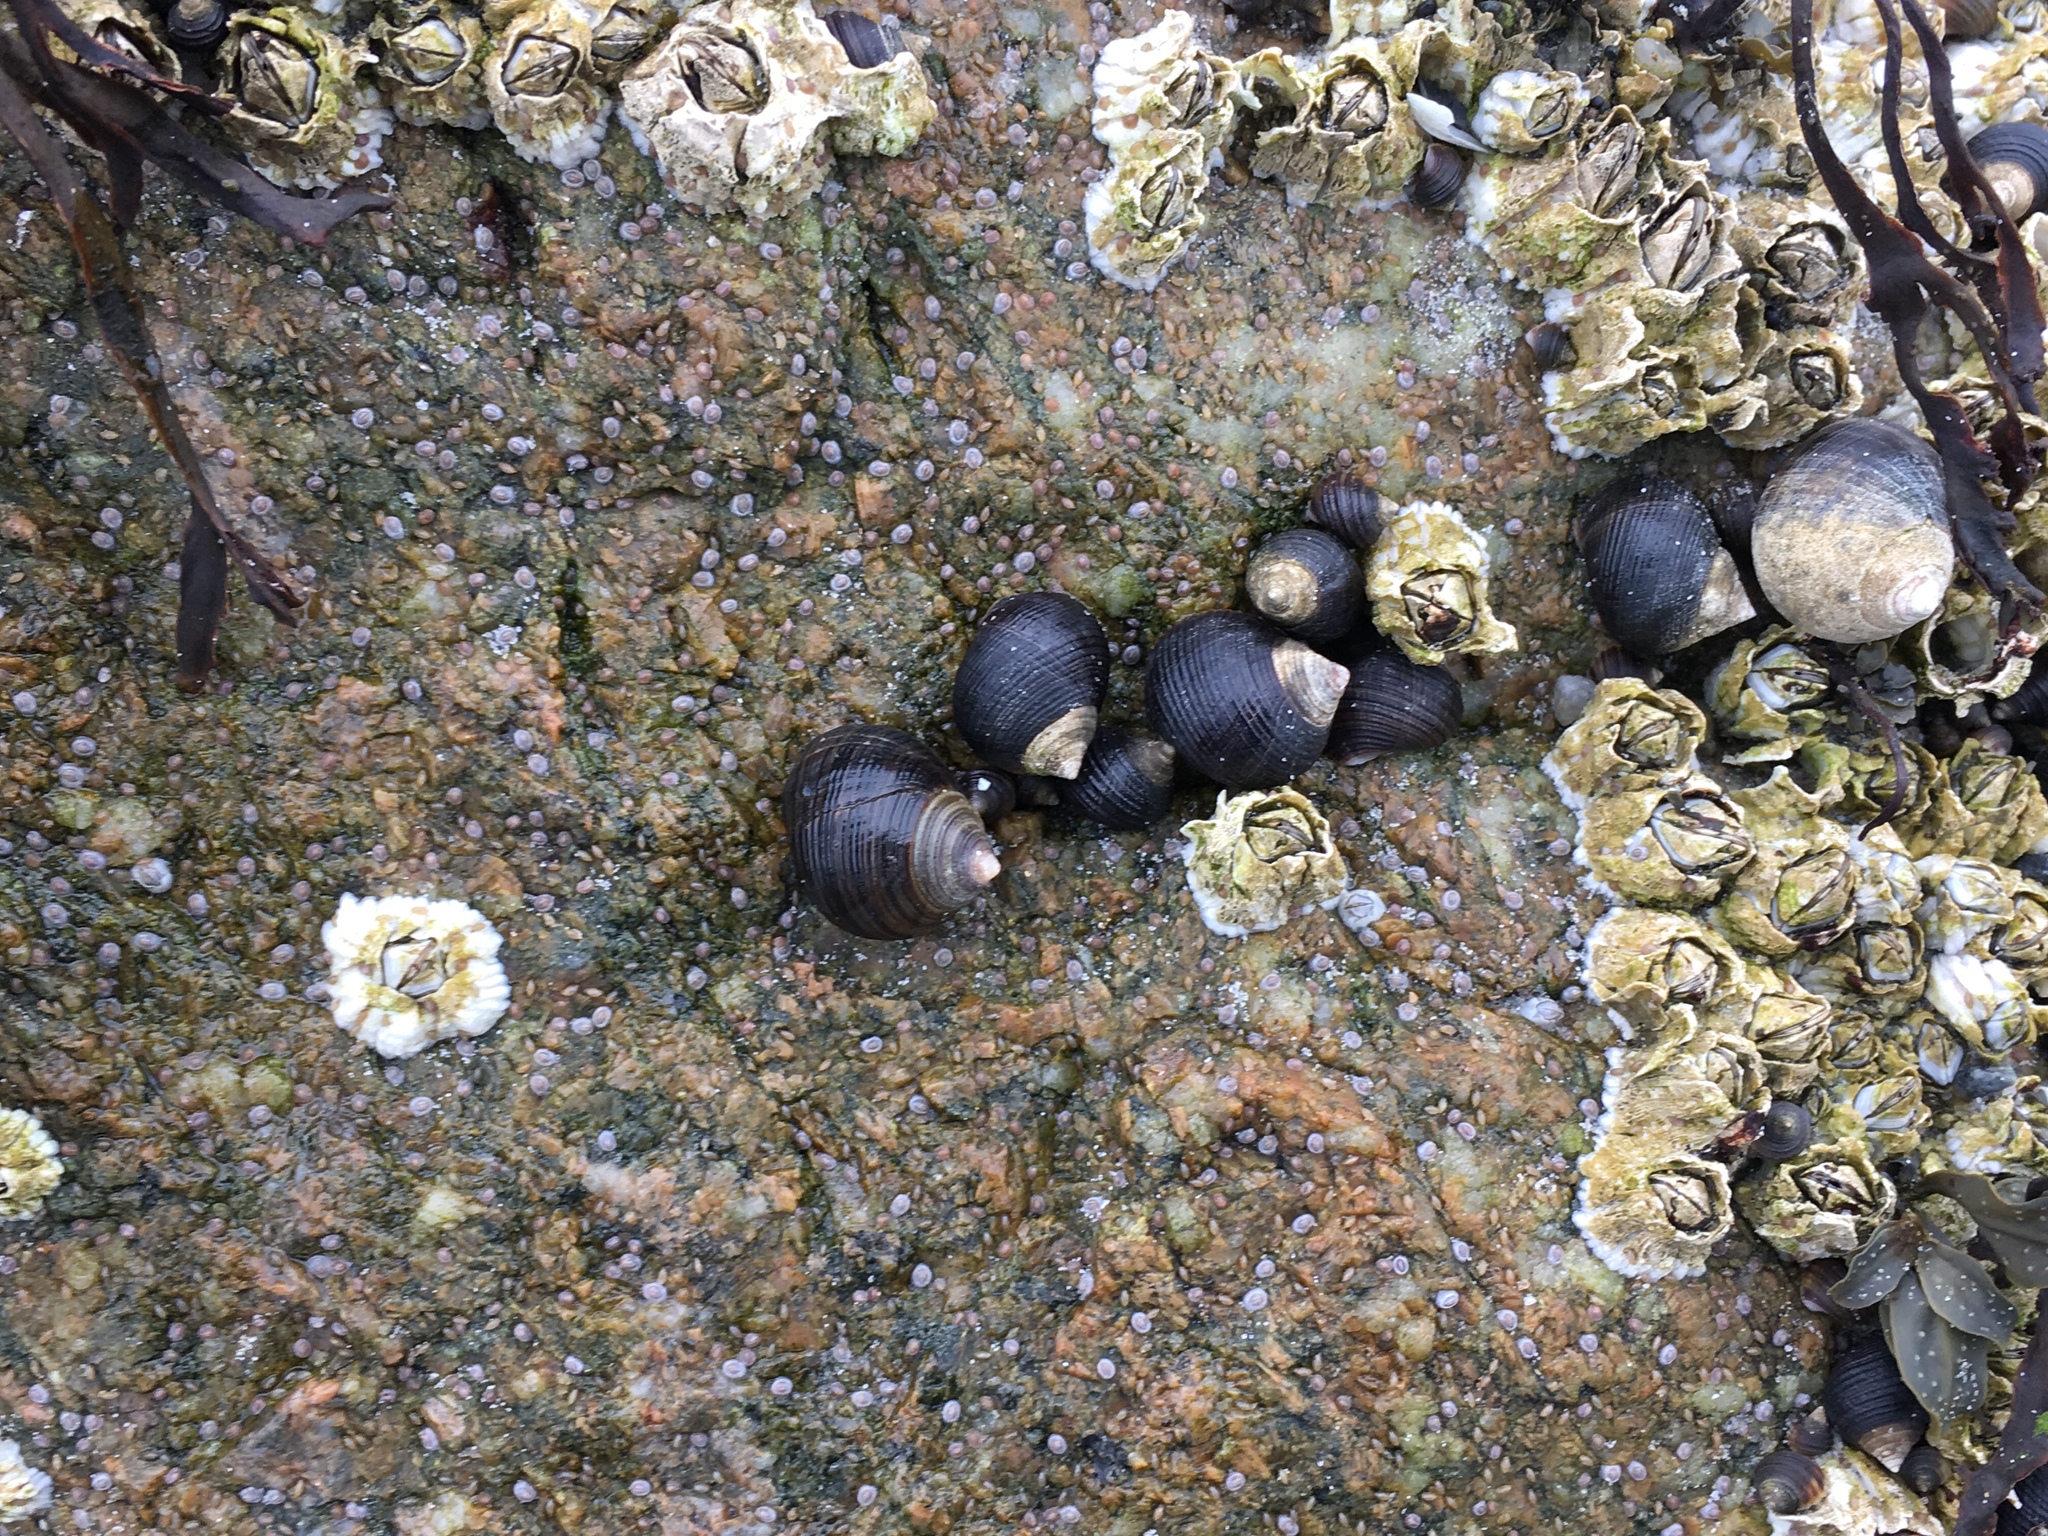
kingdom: Animalia
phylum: Mollusca
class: Gastropoda
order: Littorinimorpha
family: Littorinidae
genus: Littorina
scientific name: Littorina littorea
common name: Common periwinkle
